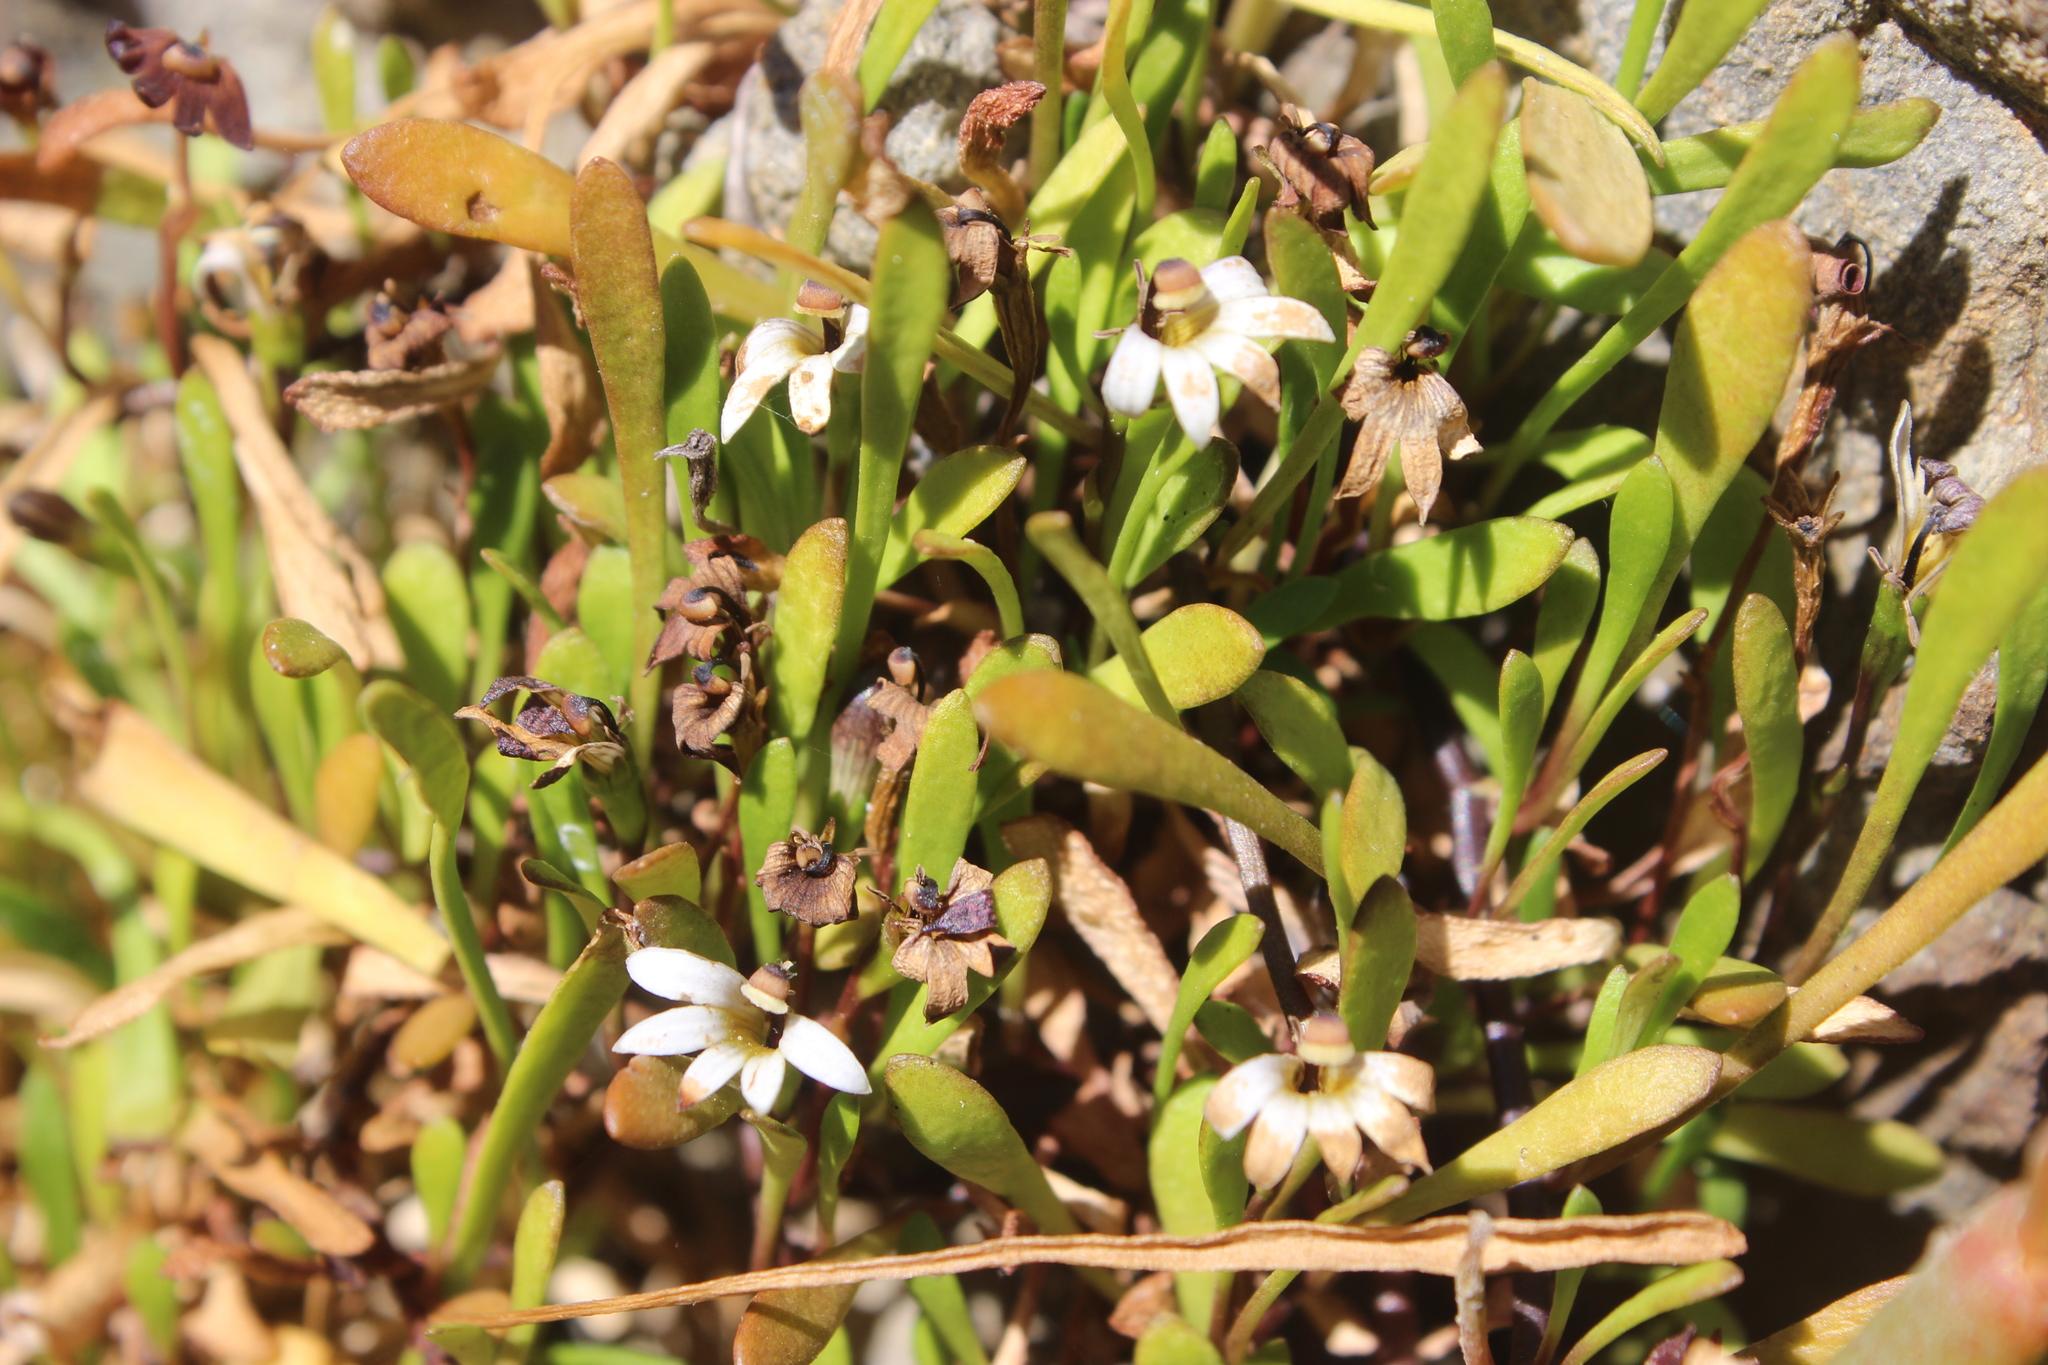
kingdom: Plantae
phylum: Tracheophyta
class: Magnoliopsida
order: Asterales
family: Goodeniaceae
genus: Goodenia
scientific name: Goodenia radicans
